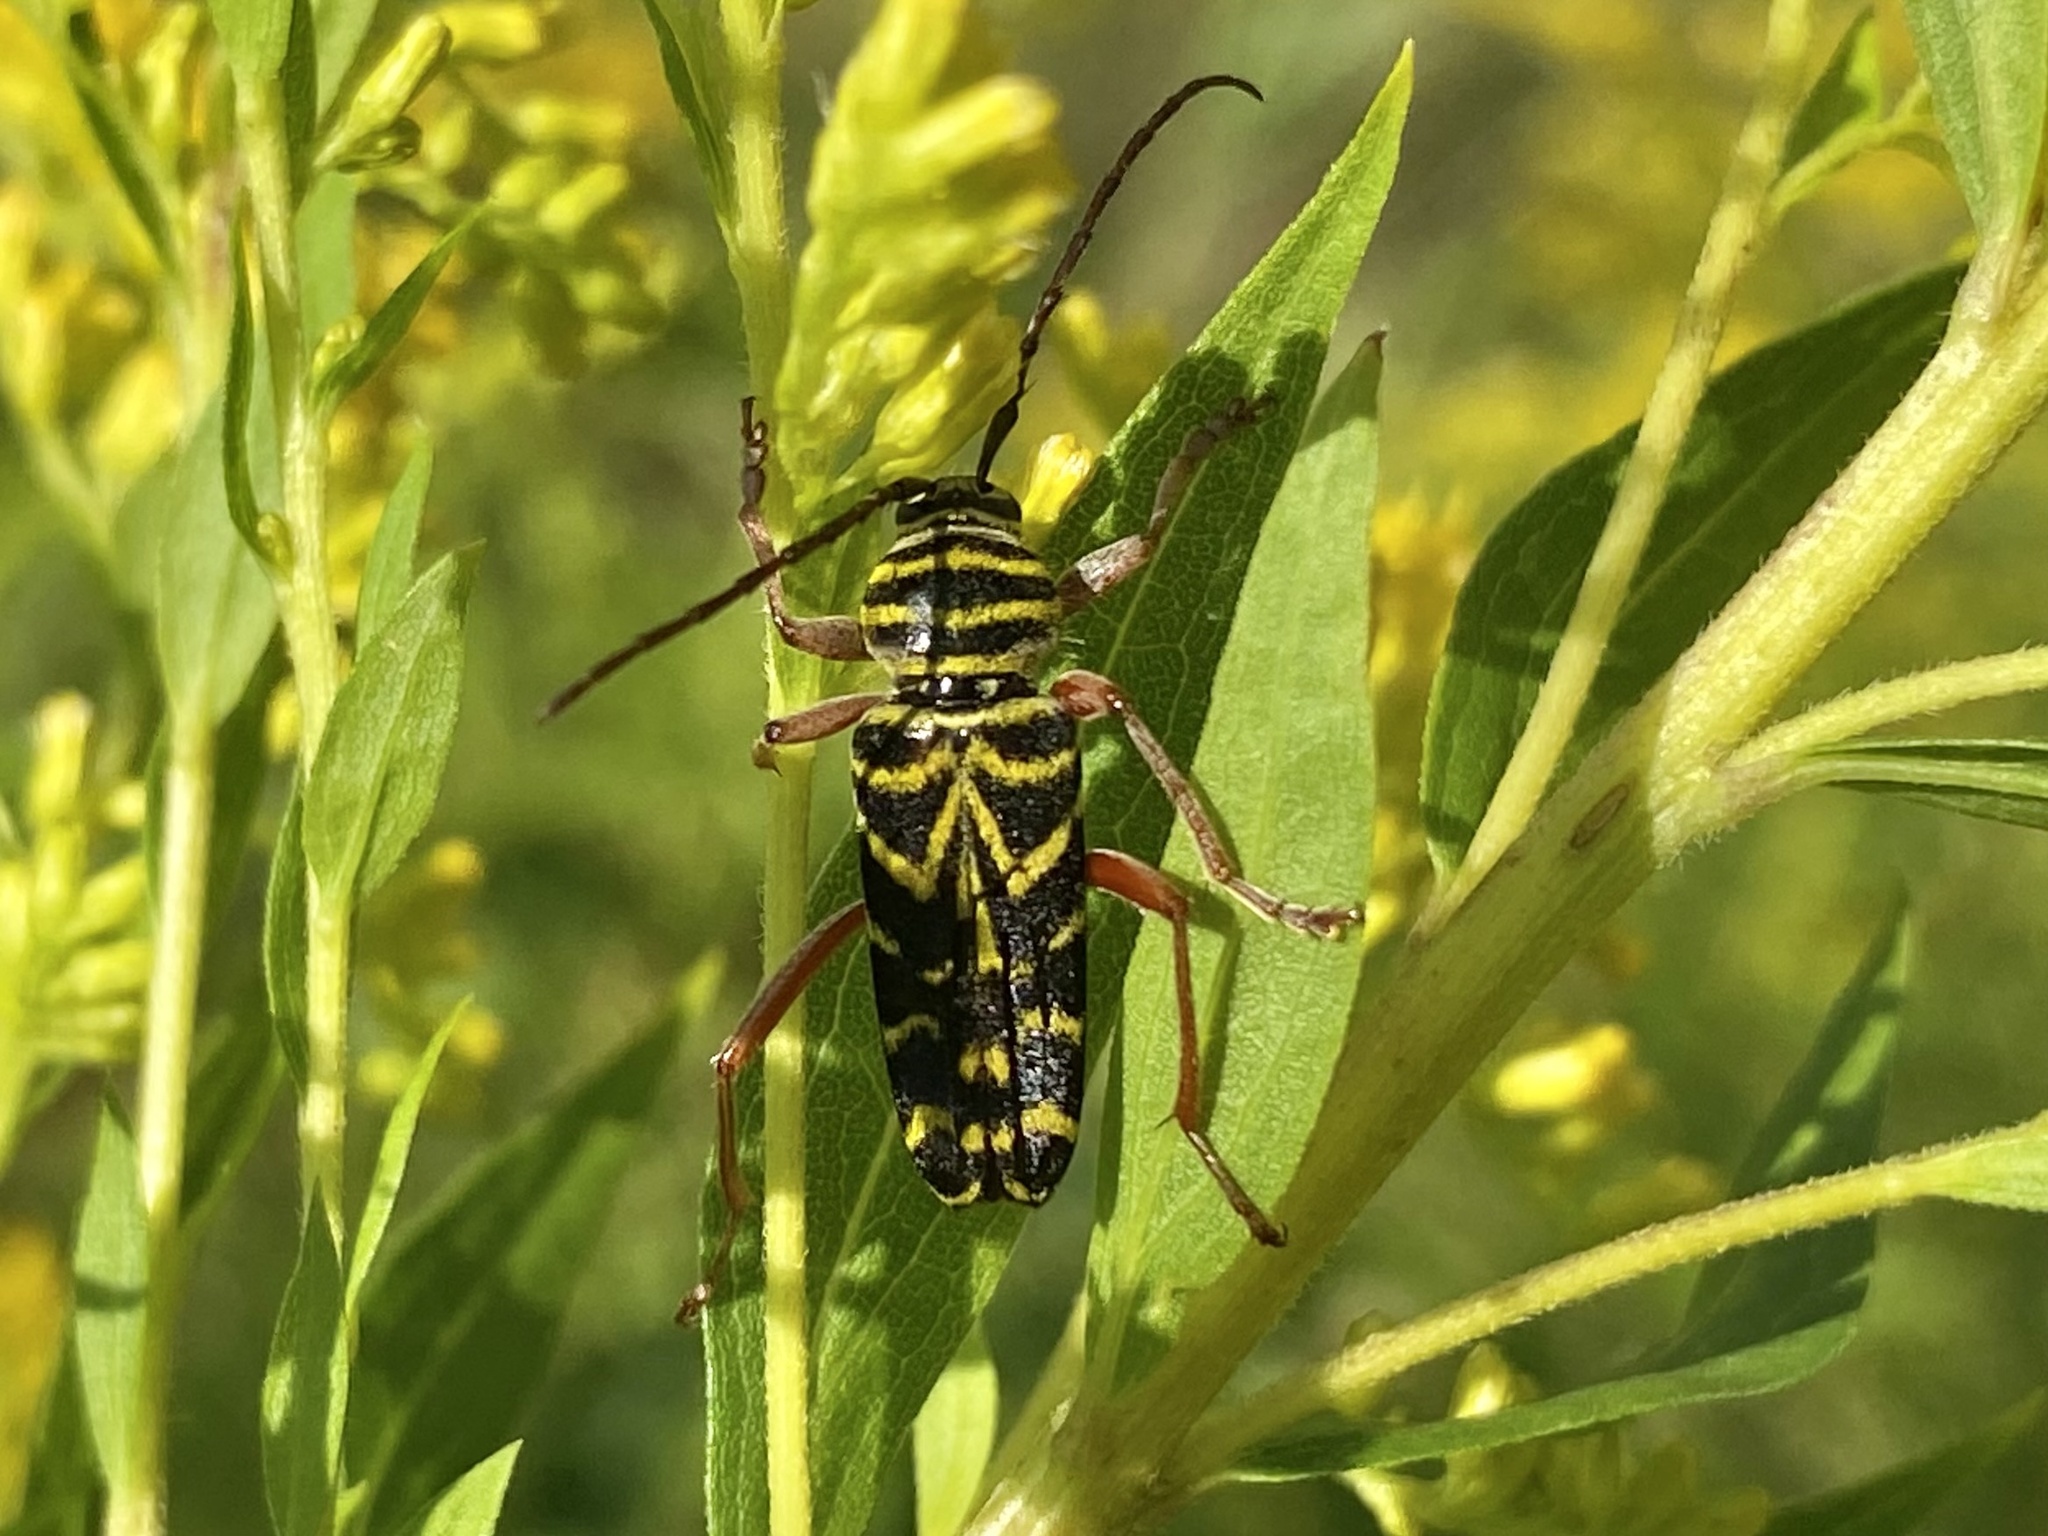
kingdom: Animalia
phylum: Arthropoda
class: Insecta
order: Coleoptera
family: Cerambycidae
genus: Megacyllene
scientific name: Megacyllene robiniae
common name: Locust borer
